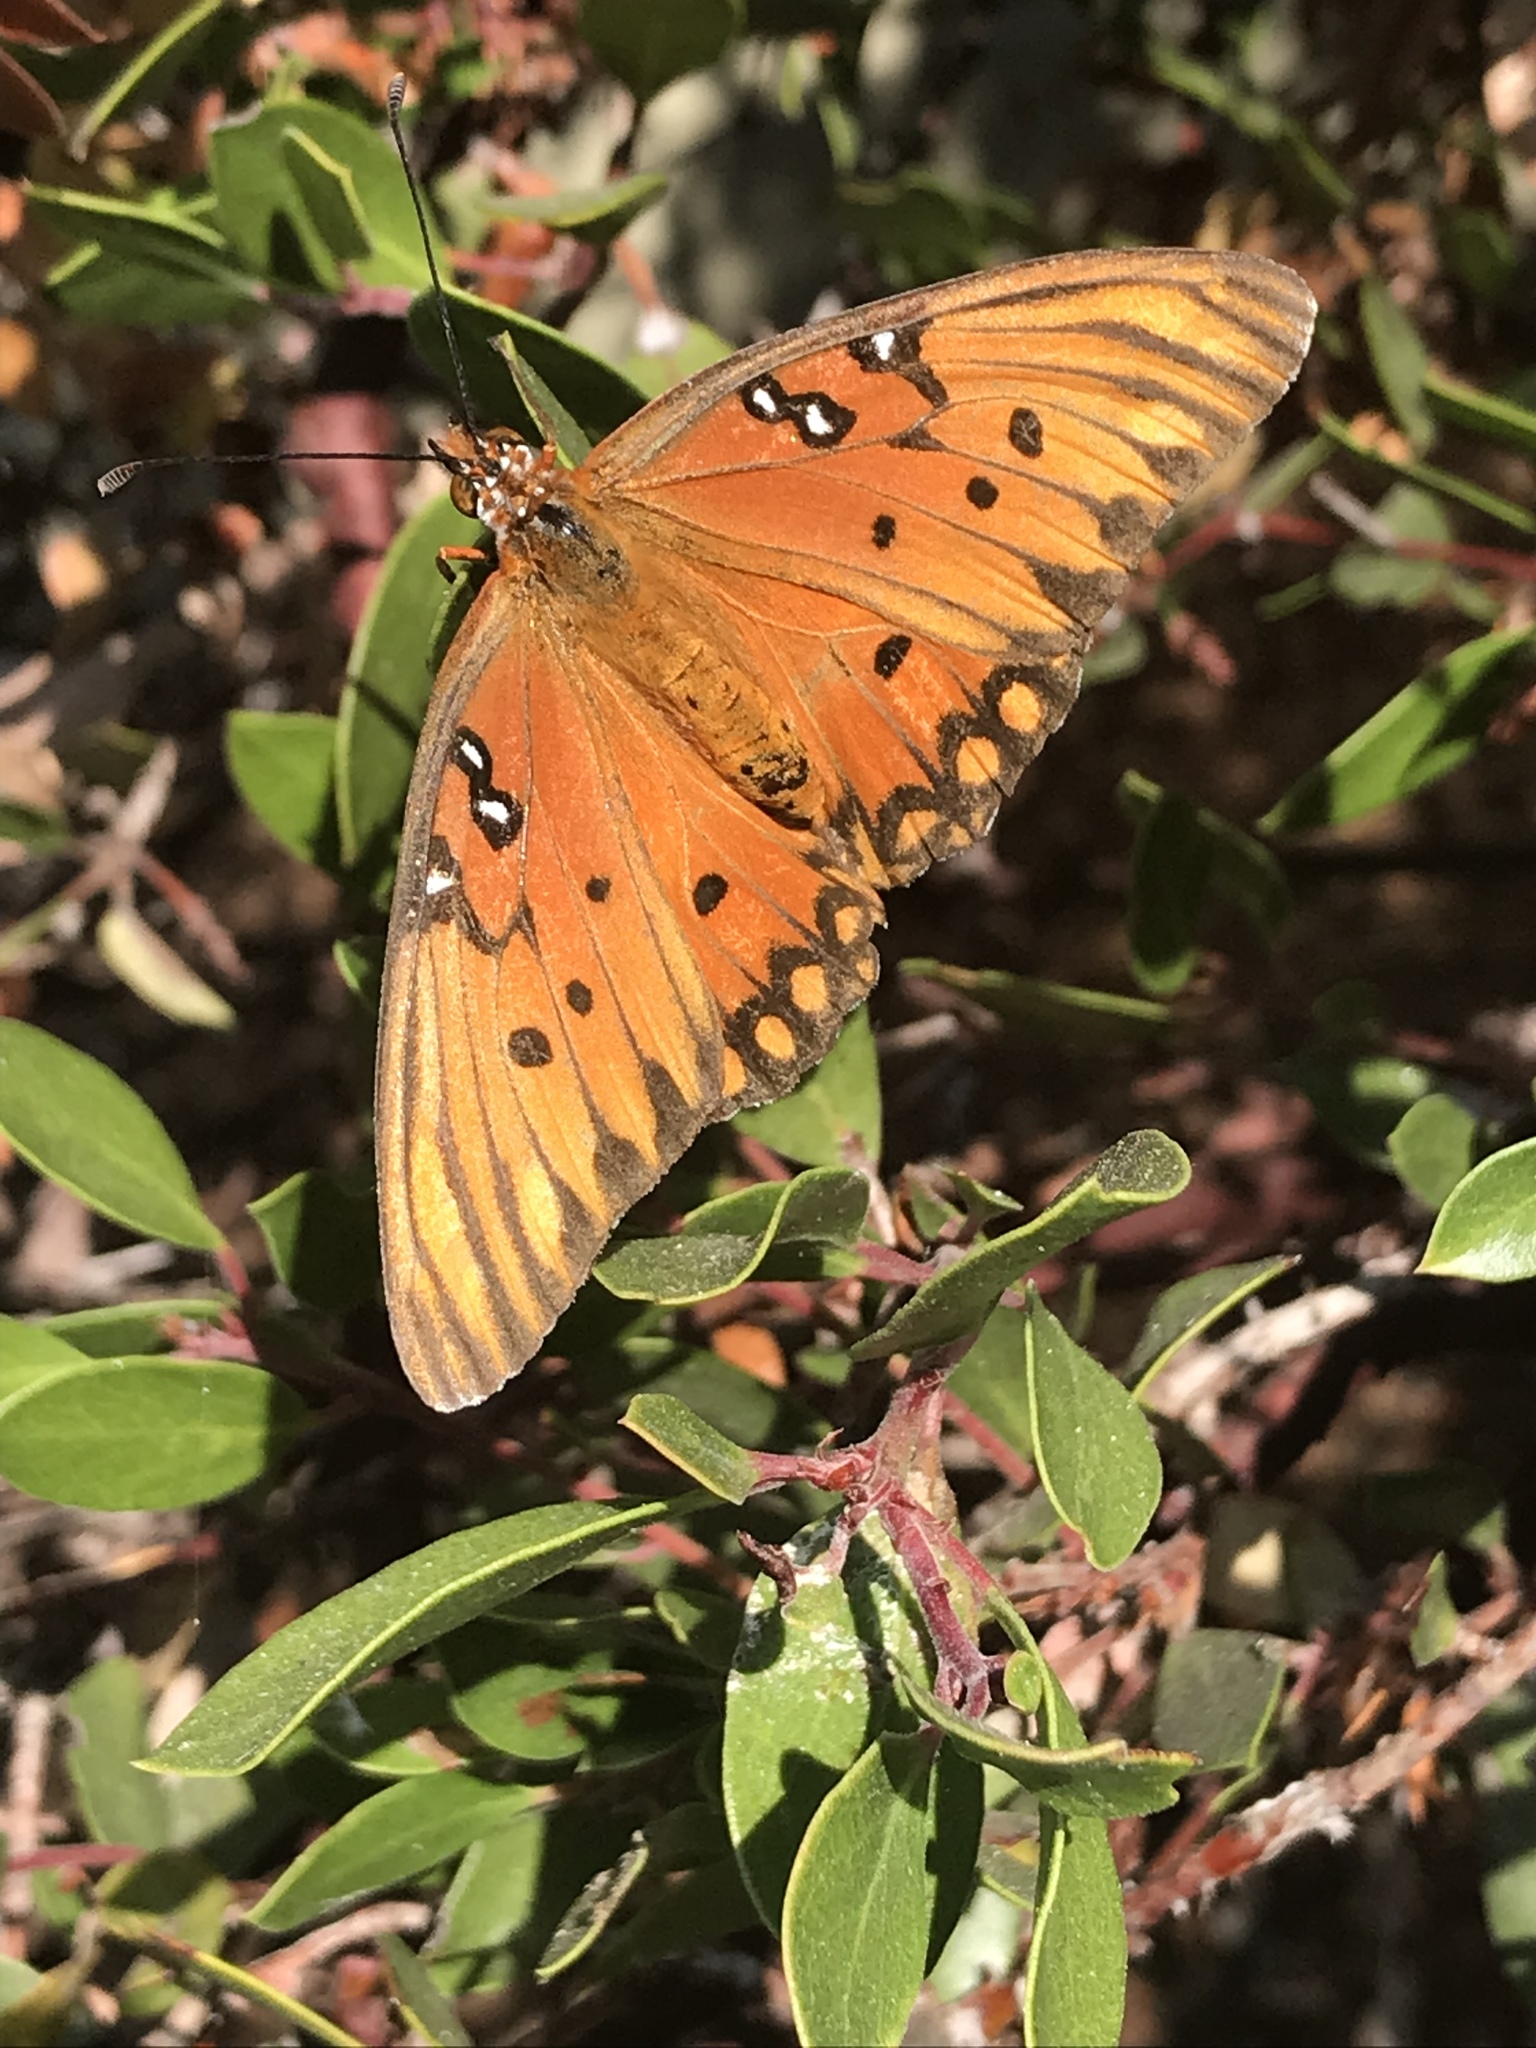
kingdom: Animalia
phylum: Arthropoda
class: Insecta
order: Lepidoptera
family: Nymphalidae
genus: Dione
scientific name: Dione vanillae
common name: Gulf fritillary
